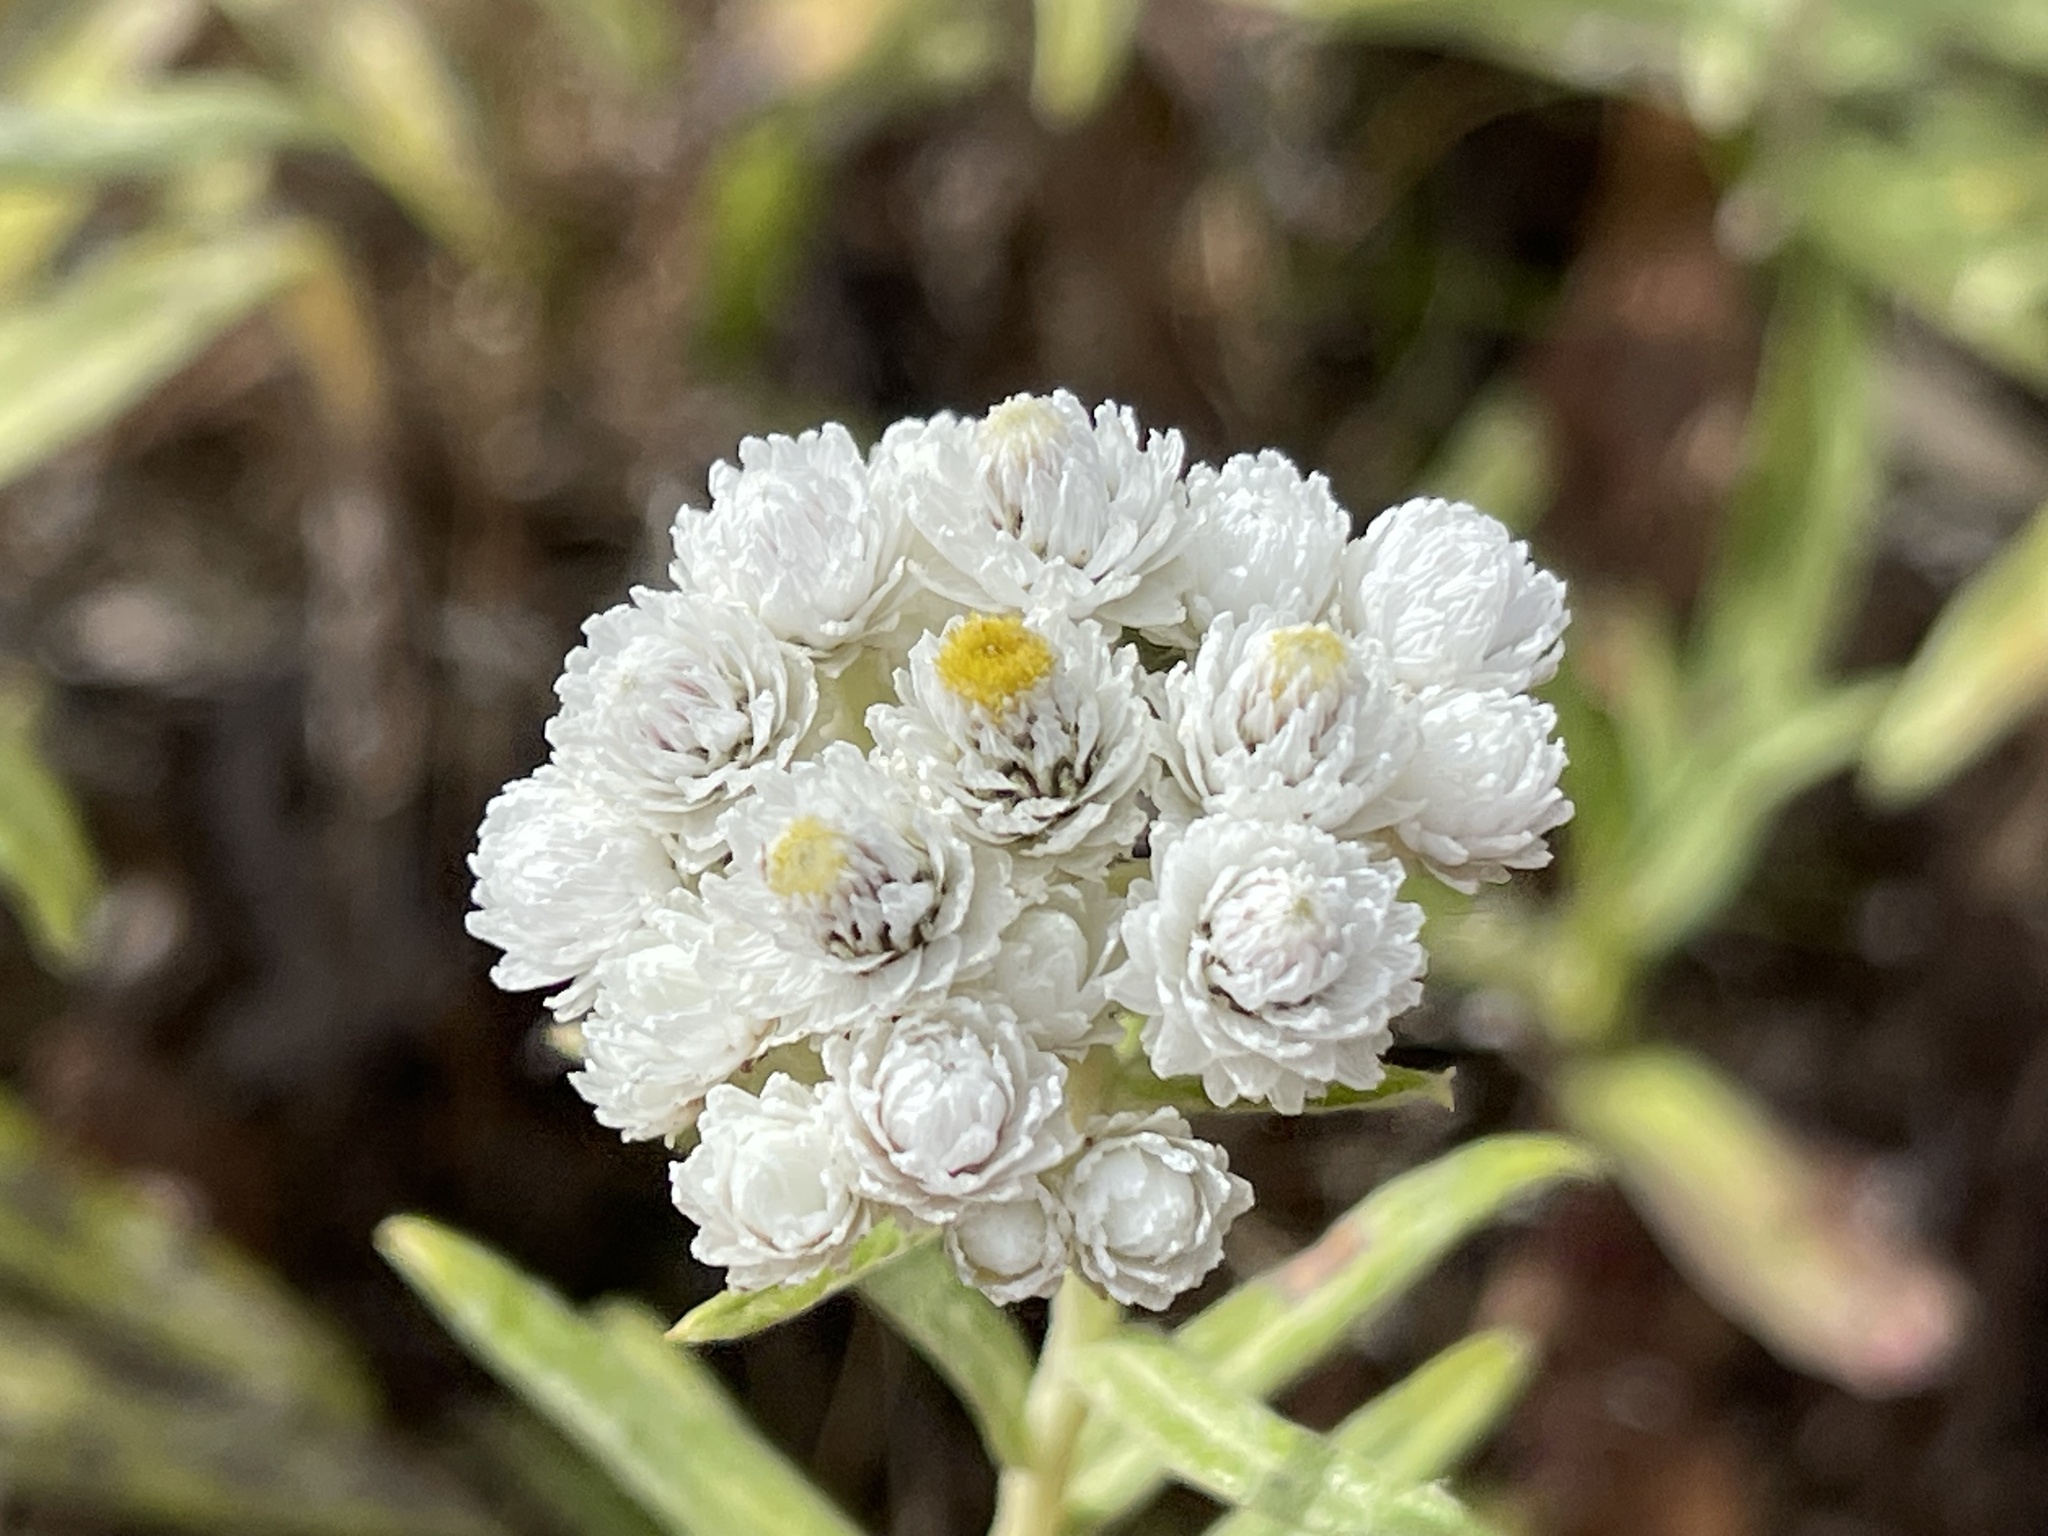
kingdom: Plantae
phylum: Tracheophyta
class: Magnoliopsida
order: Asterales
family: Asteraceae
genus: Anaphalis
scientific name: Anaphalis margaritacea
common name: Pearly everlasting
